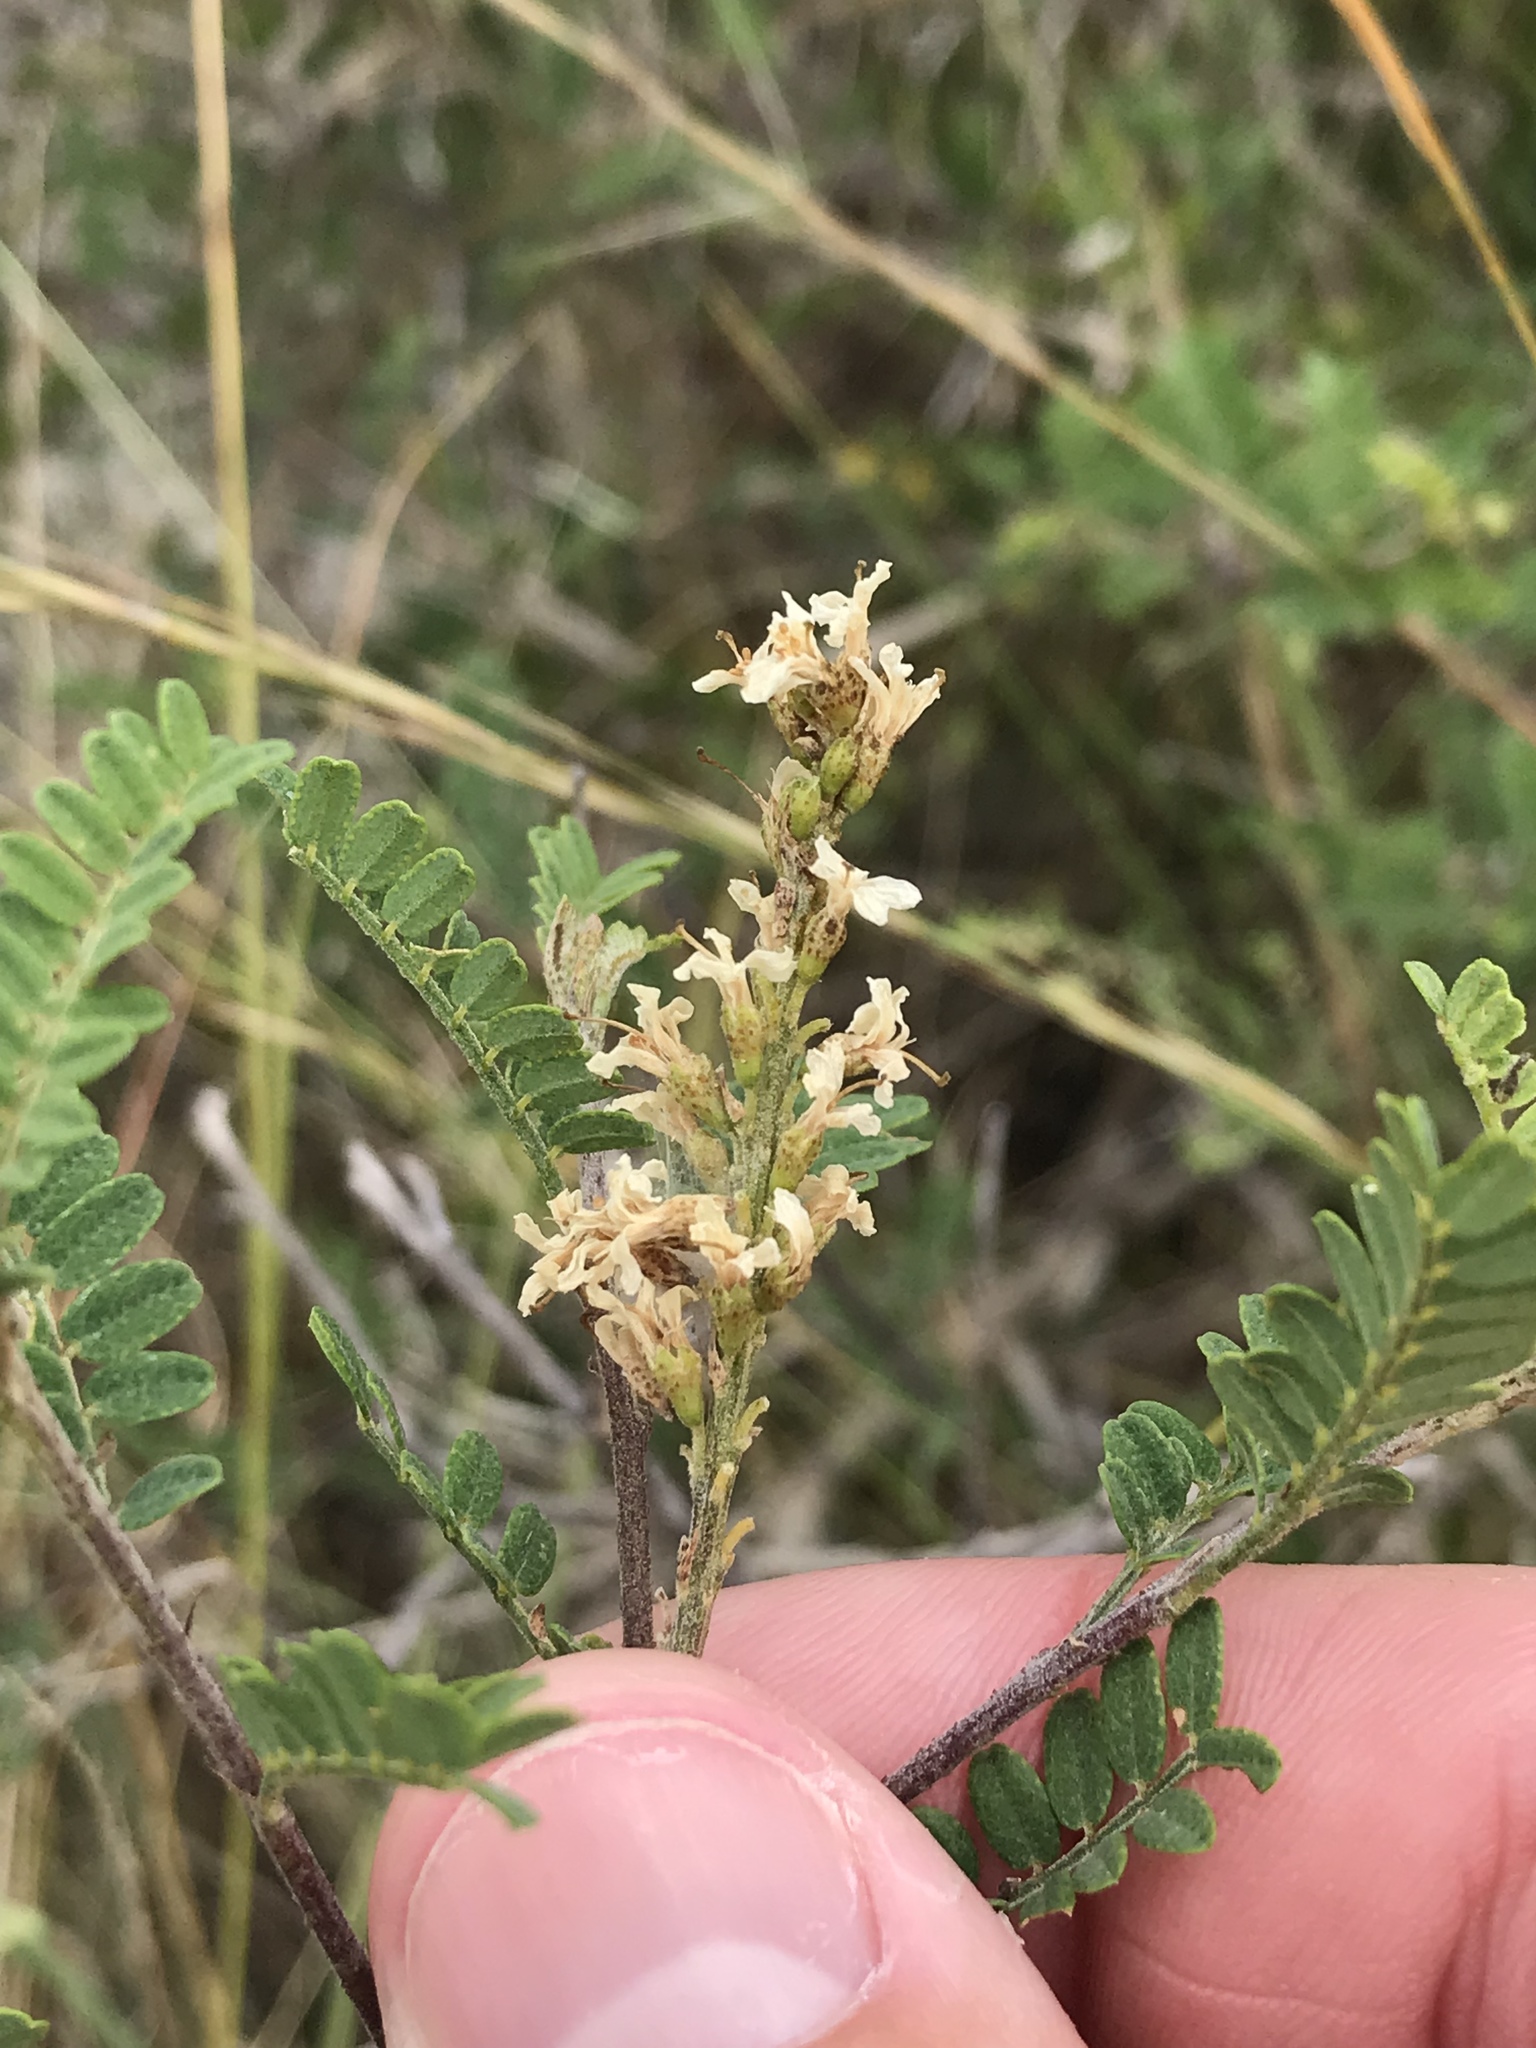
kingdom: Plantae
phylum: Tracheophyta
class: Magnoliopsida
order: Fabales
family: Fabaceae
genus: Eysenhardtia
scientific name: Eysenhardtia texana
